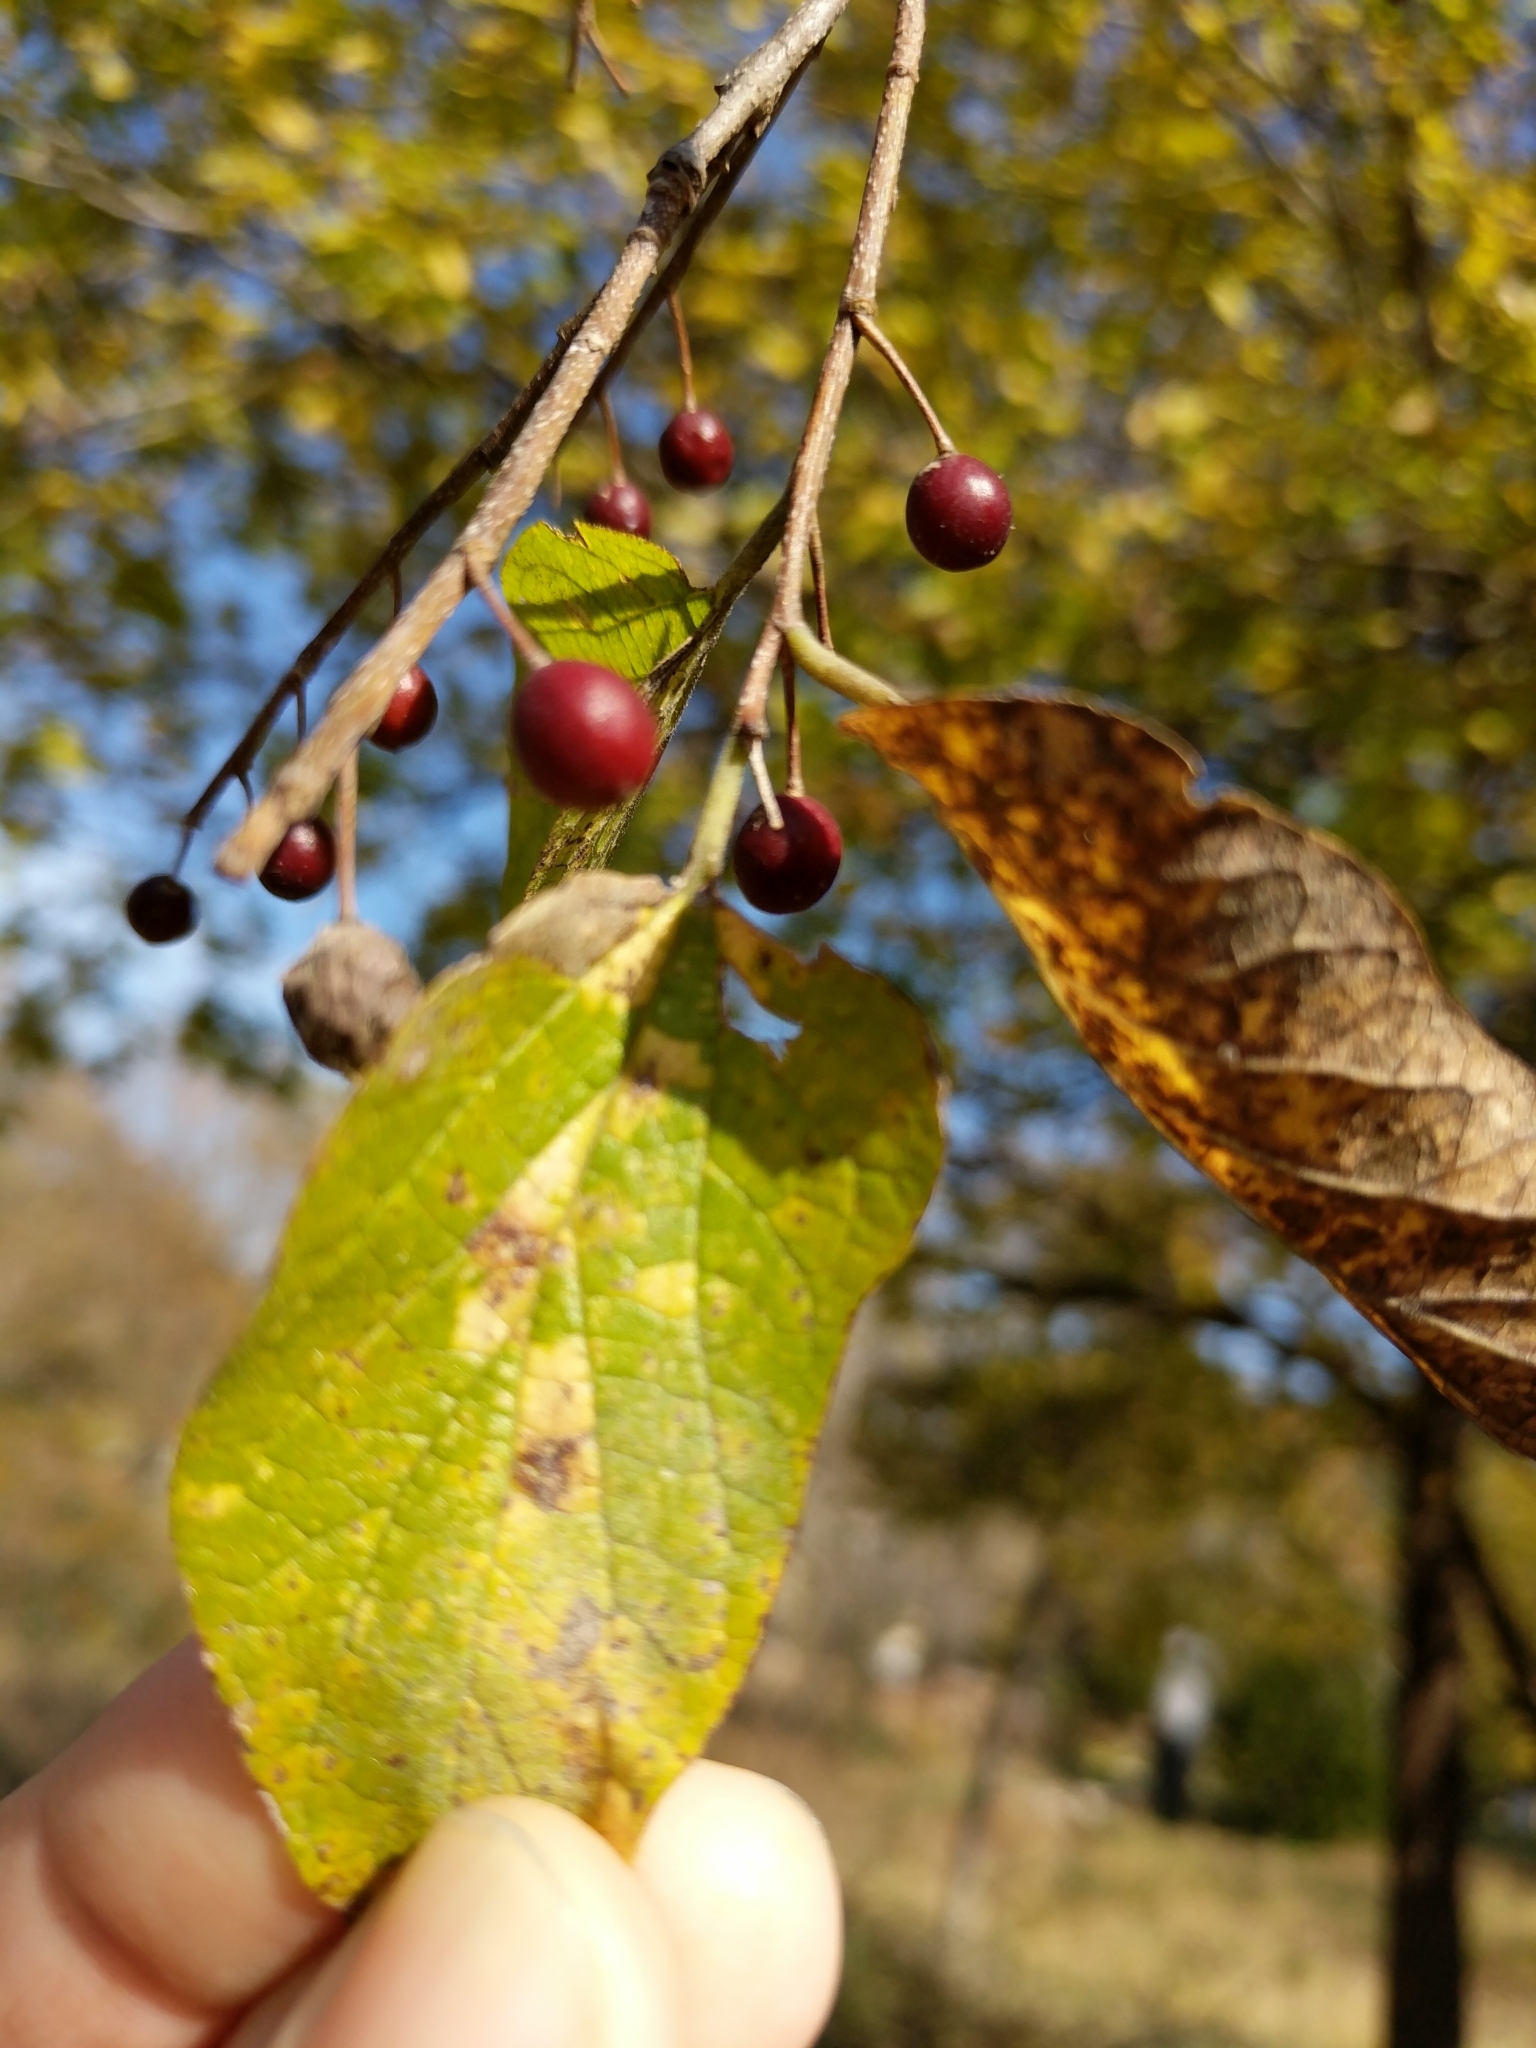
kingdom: Plantae
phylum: Tracheophyta
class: Magnoliopsida
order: Rosales
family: Cannabaceae
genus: Celtis
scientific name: Celtis laevigata
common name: Sugarberry
